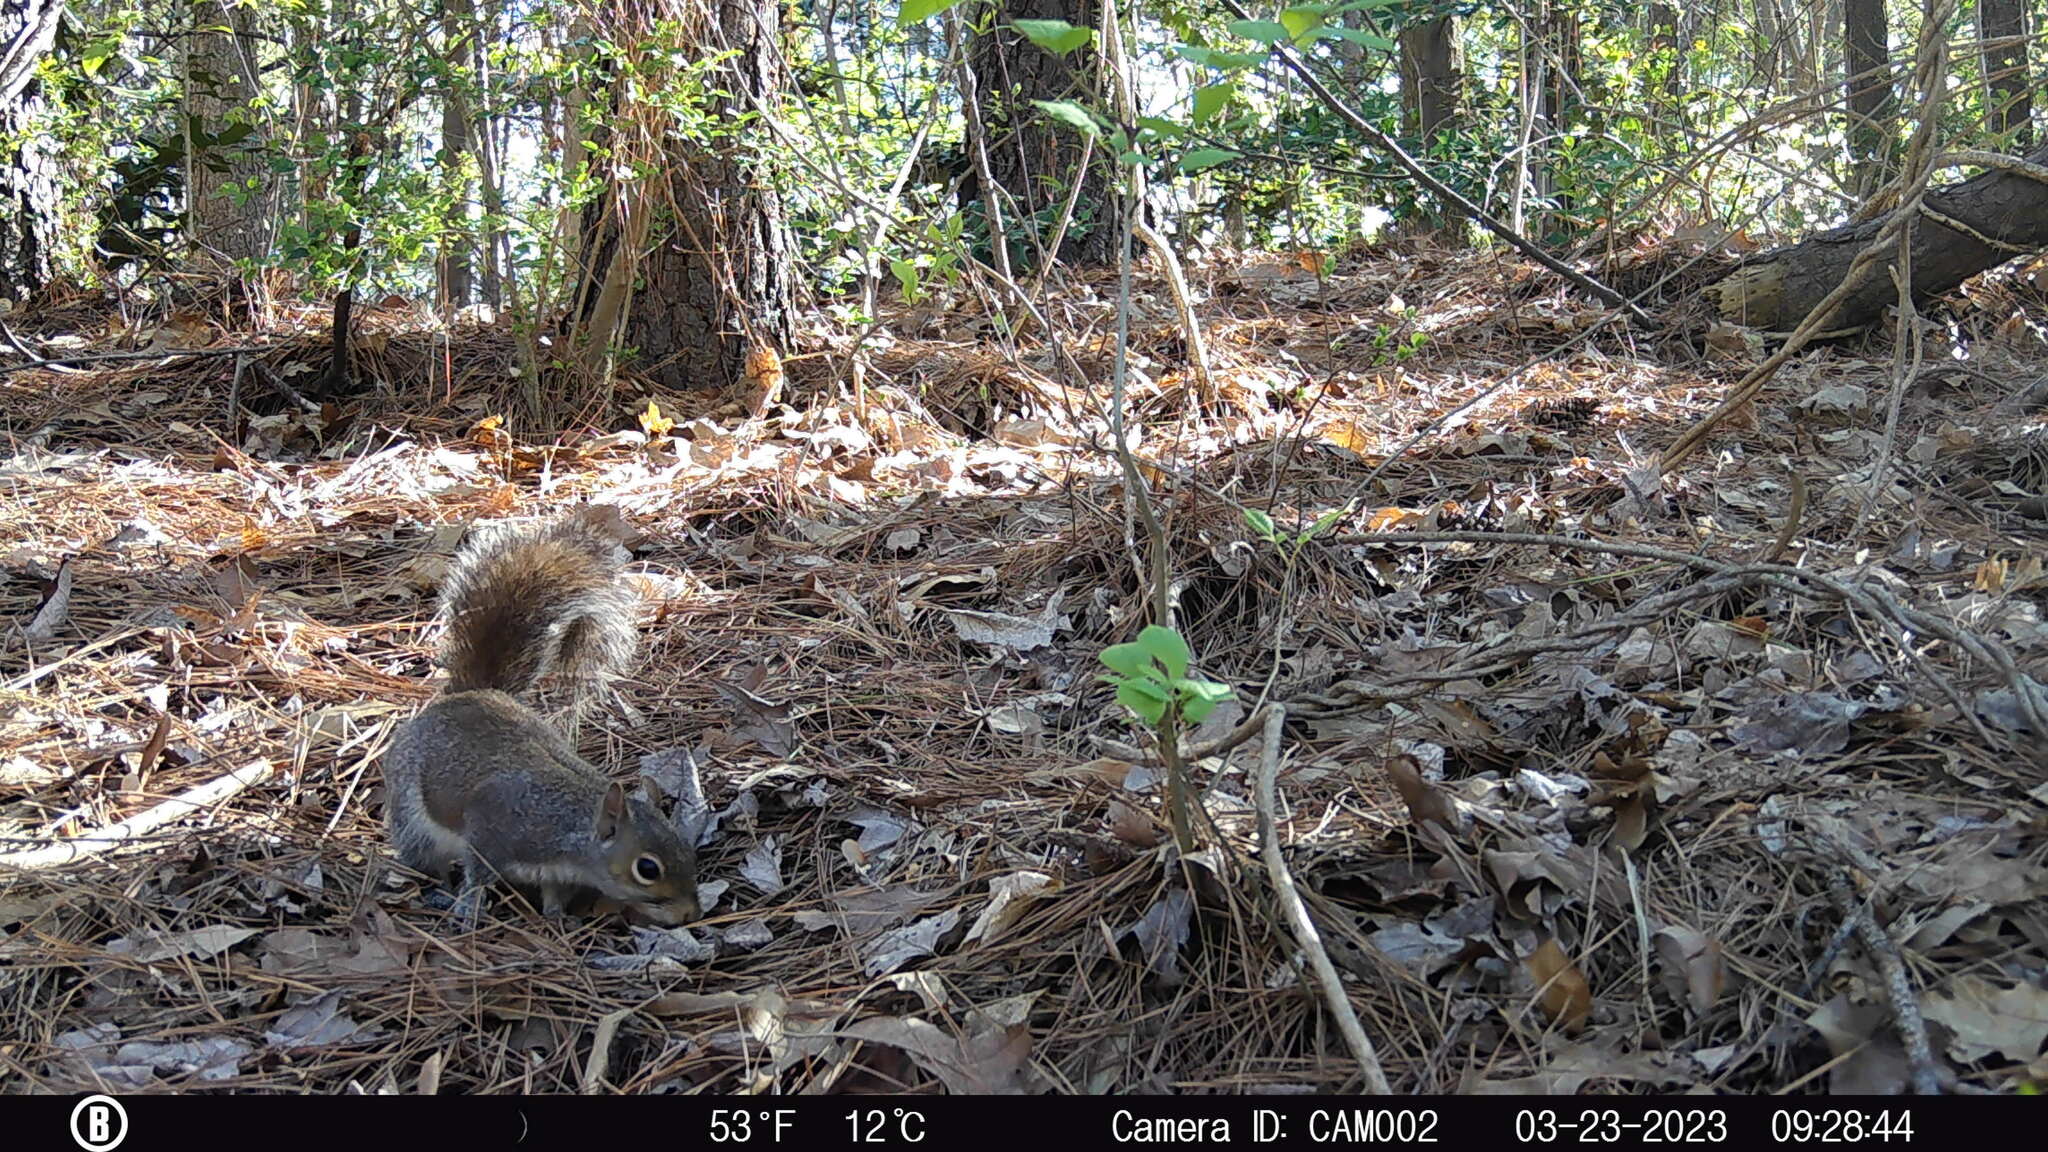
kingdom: Animalia
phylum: Chordata
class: Mammalia
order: Rodentia
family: Sciuridae
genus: Sciurus
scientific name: Sciurus carolinensis
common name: Eastern gray squirrel
